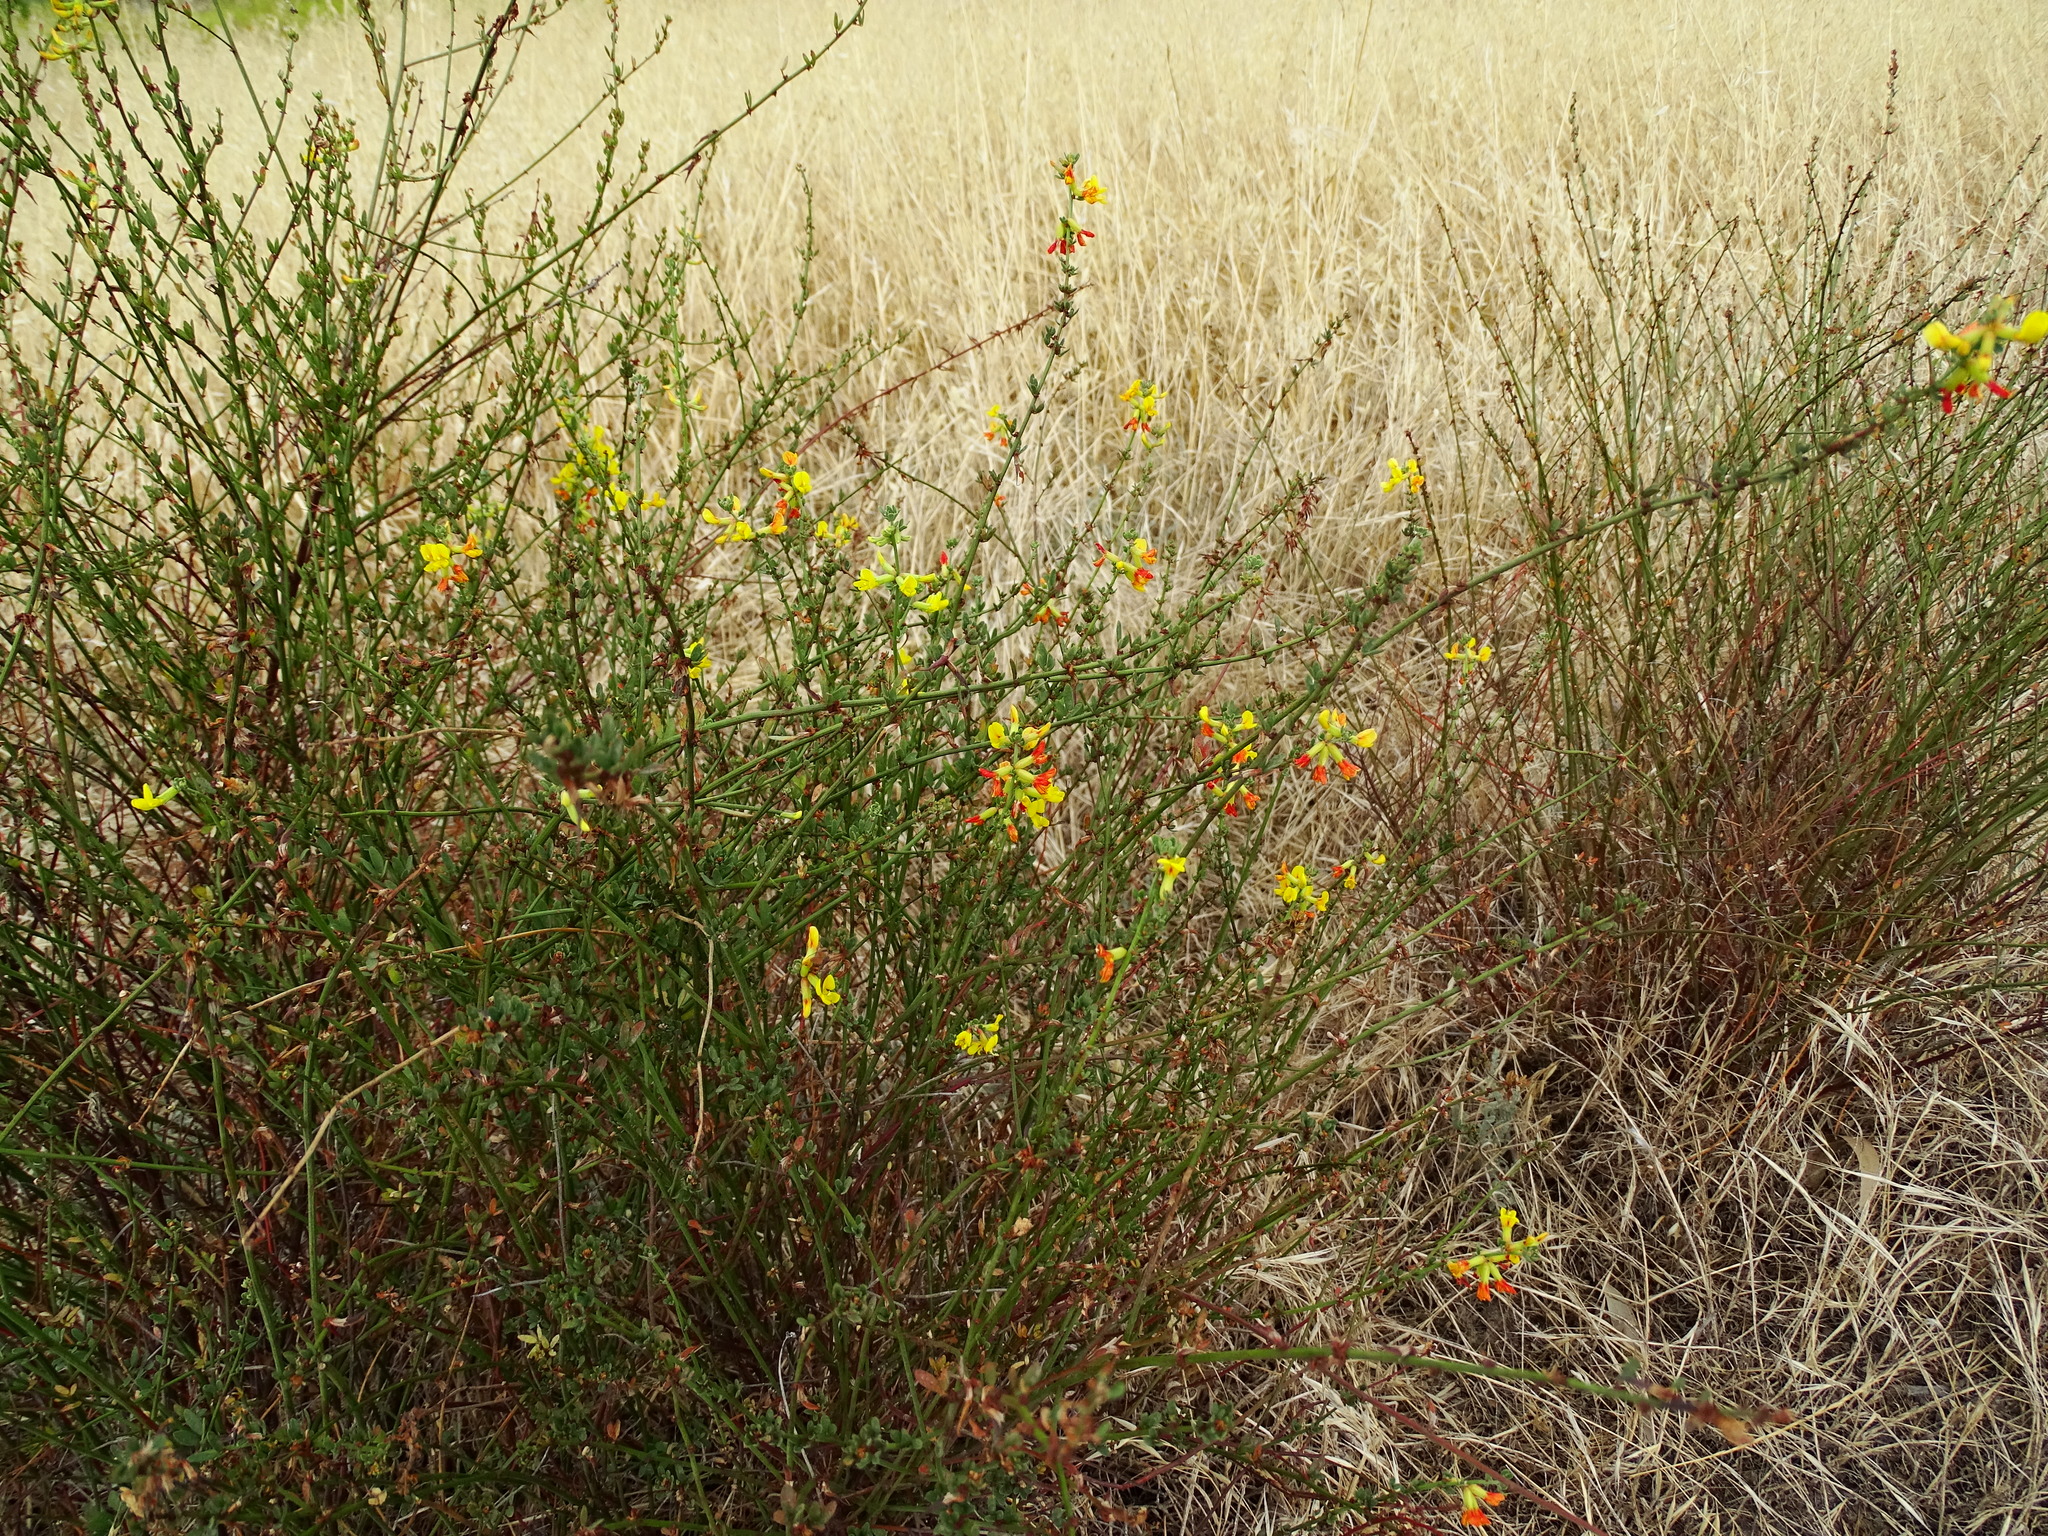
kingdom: Plantae
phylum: Tracheophyta
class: Magnoliopsida
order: Fabales
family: Fabaceae
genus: Acmispon
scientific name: Acmispon glaber
